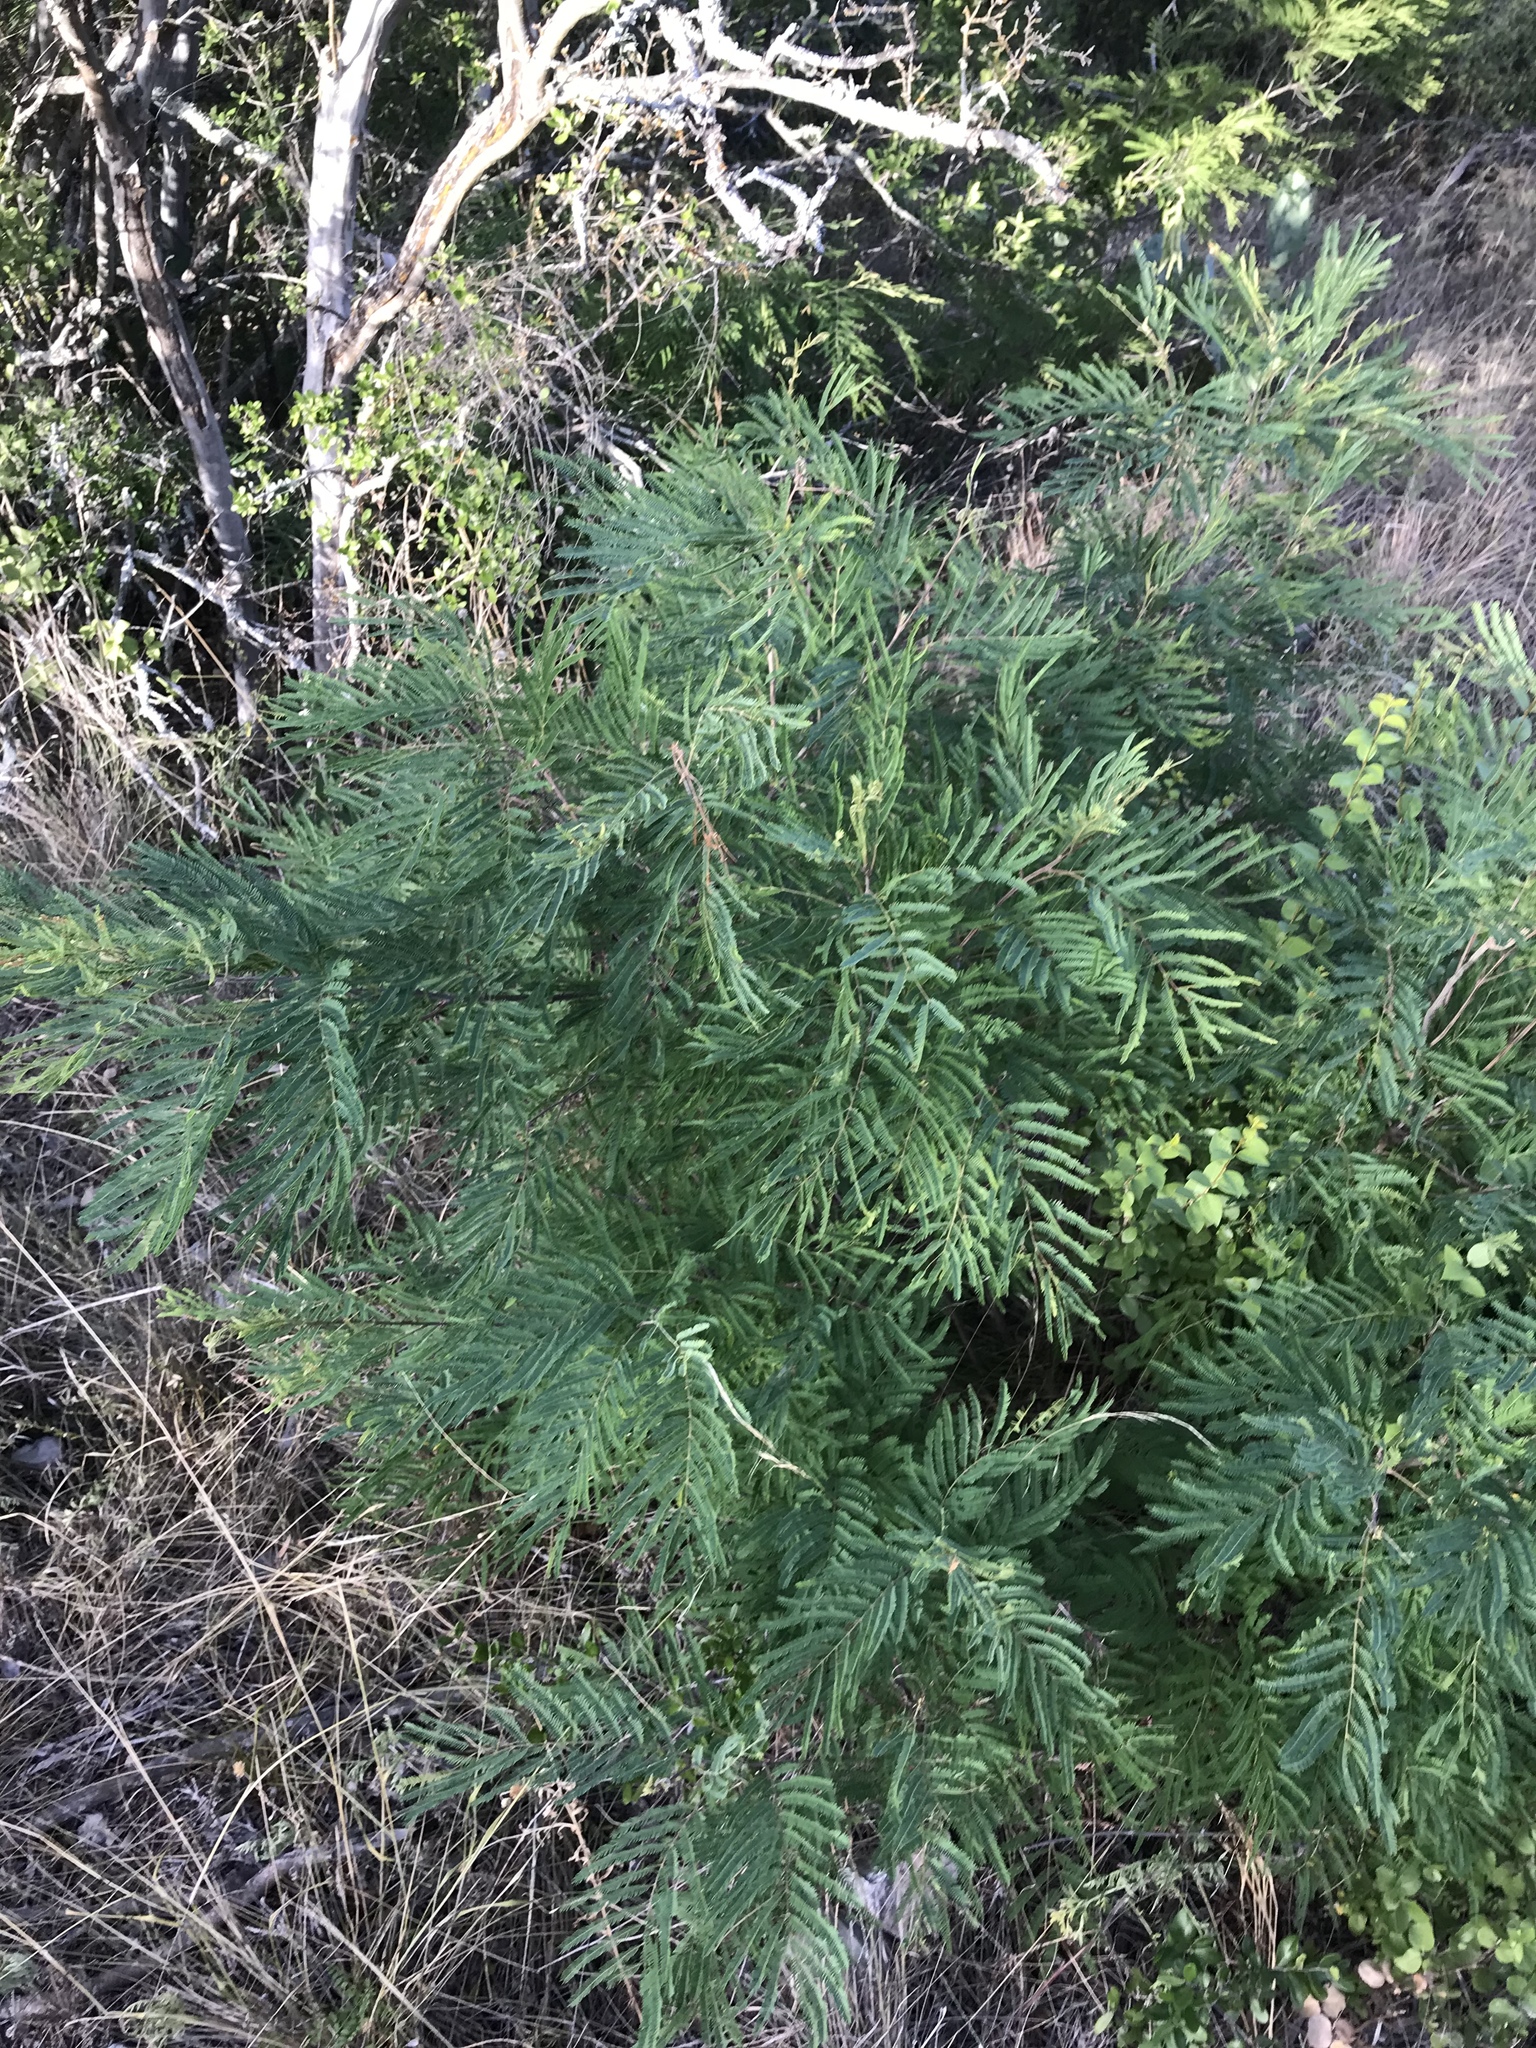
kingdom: Plantae
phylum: Tracheophyta
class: Magnoliopsida
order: Fabales
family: Fabaceae
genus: Senegalia
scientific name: Senegalia berlandieri
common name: Berlandier acacia
